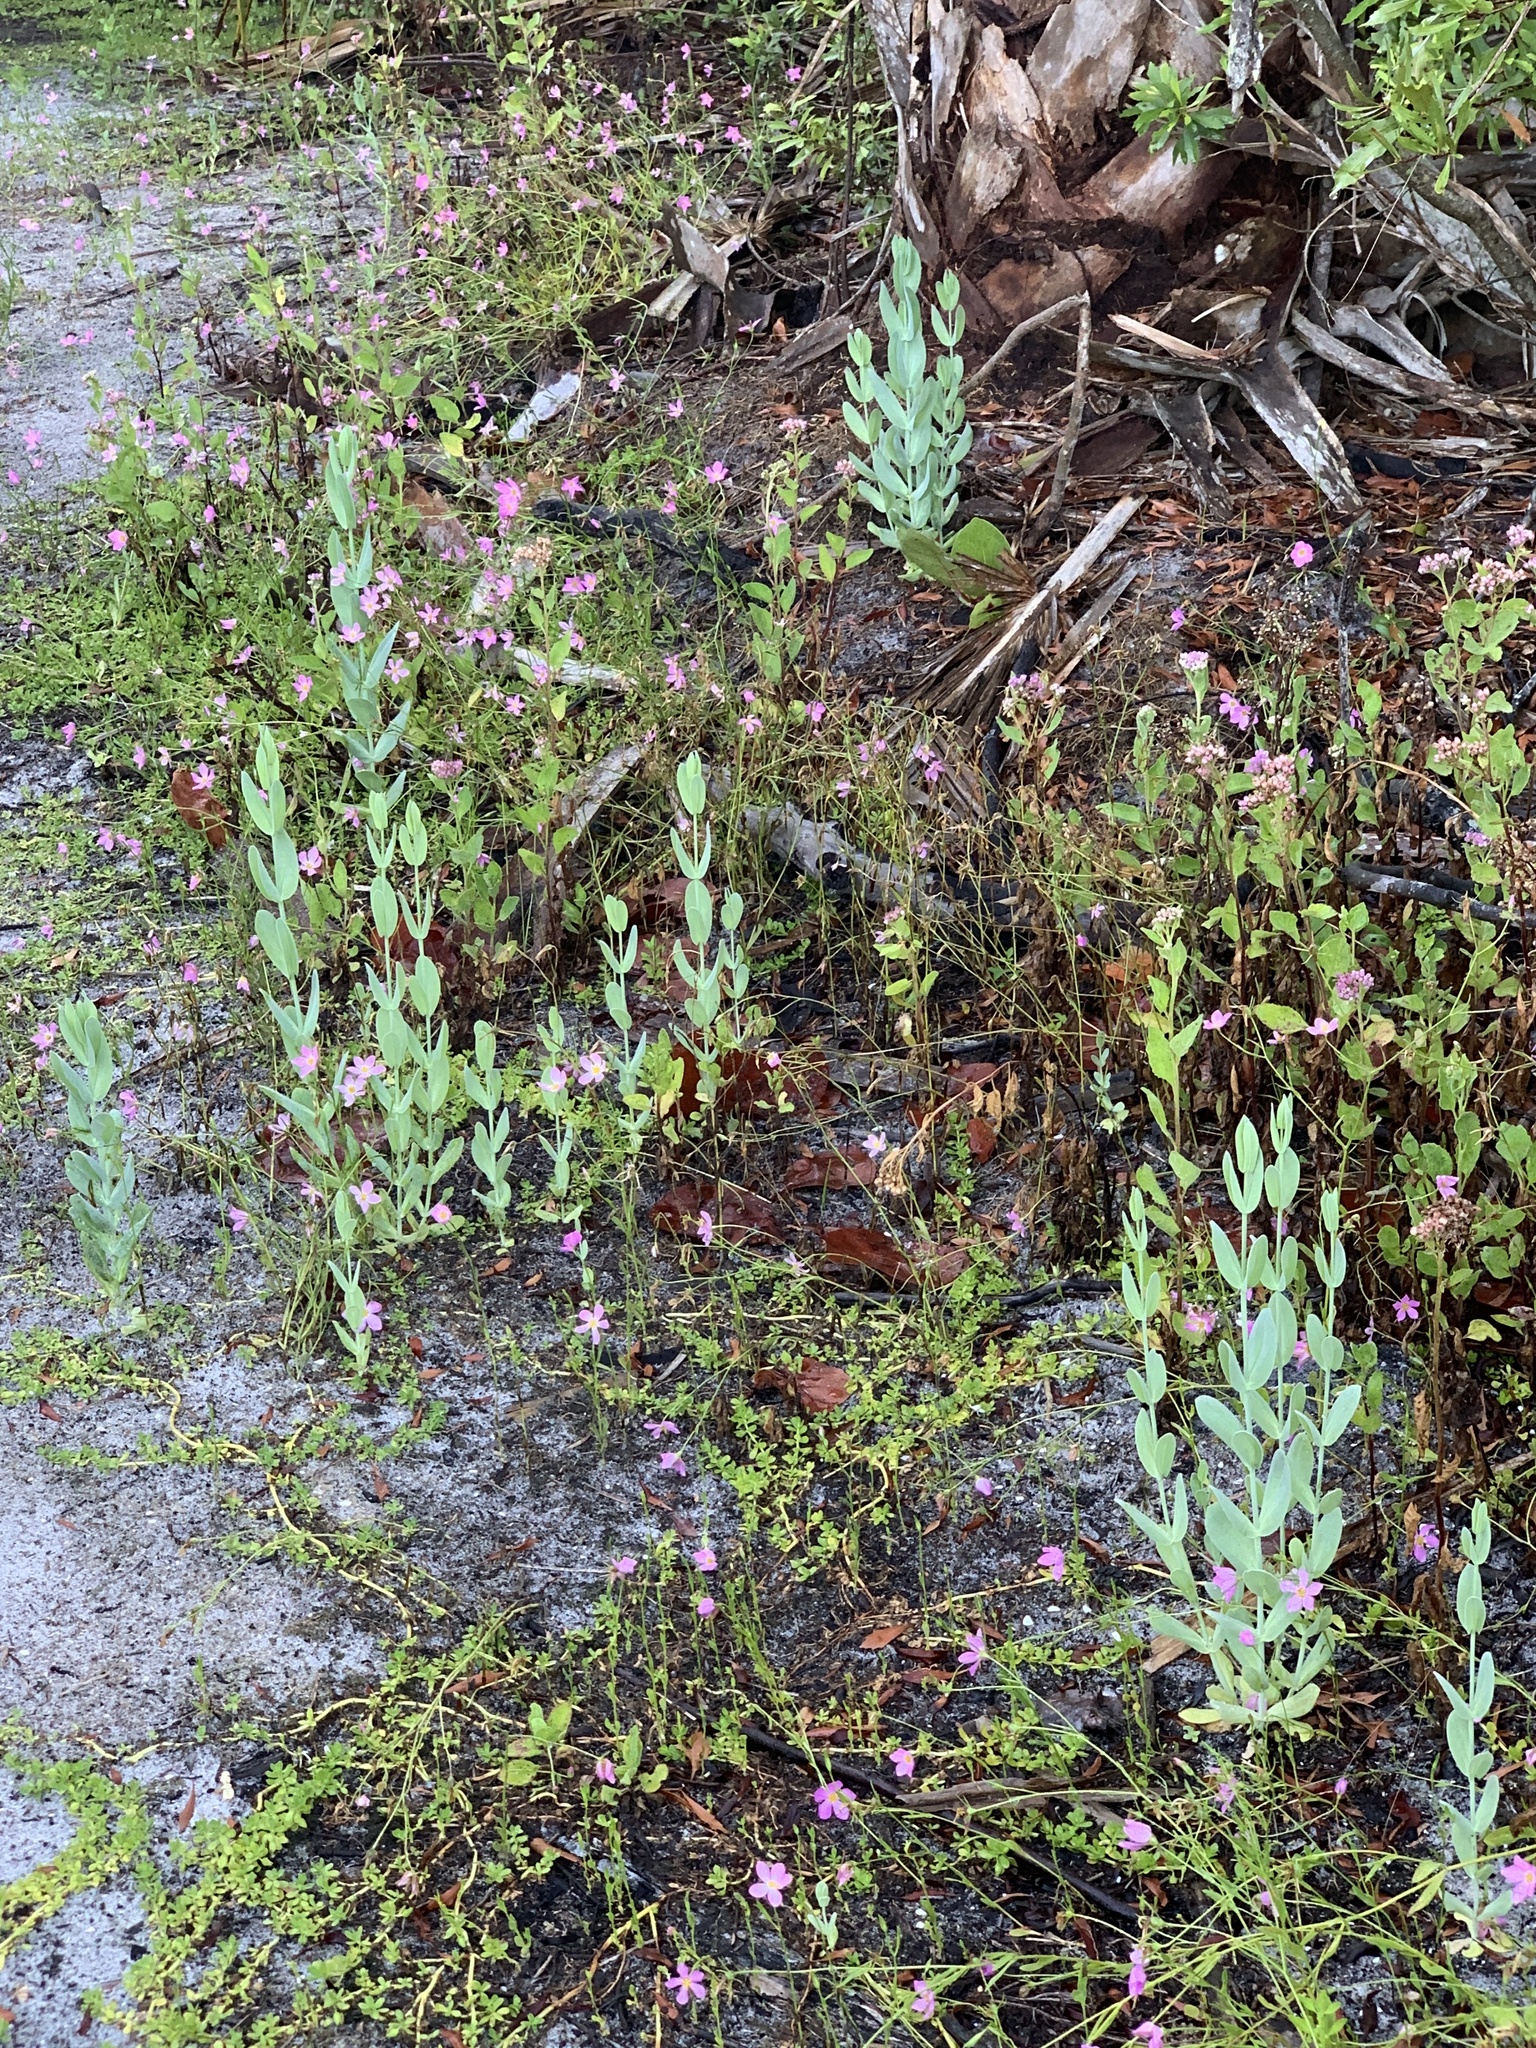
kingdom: Plantae
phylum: Tracheophyta
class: Magnoliopsida
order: Gentianales
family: Gentianaceae
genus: Eustoma
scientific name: Eustoma exaltatum
